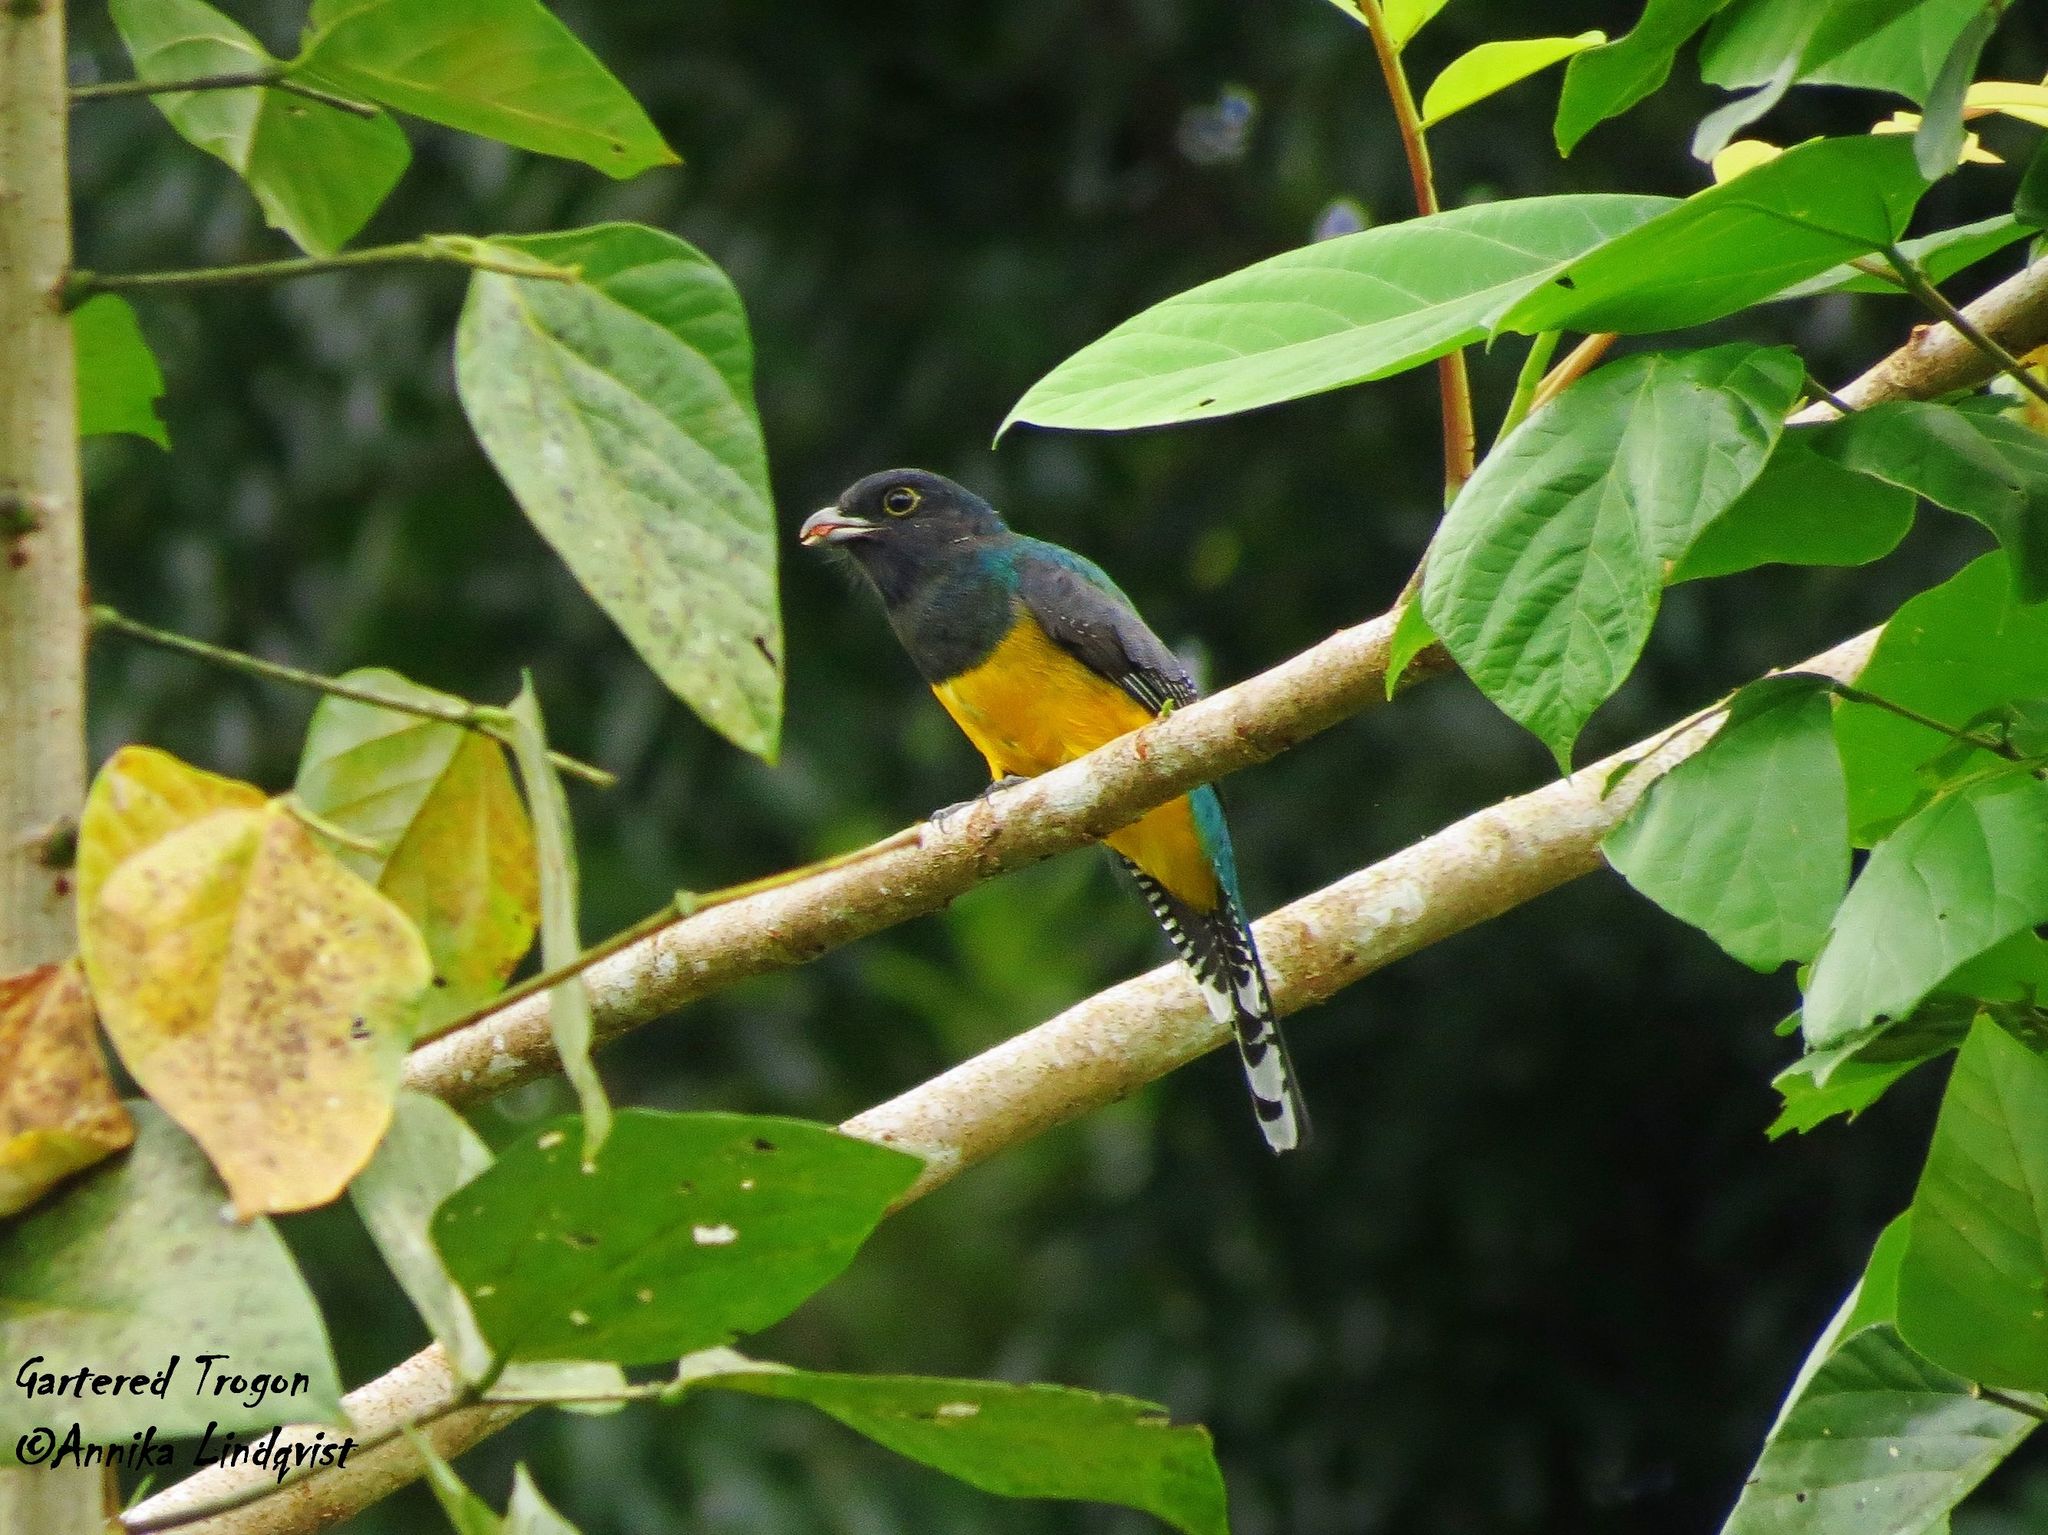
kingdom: Animalia
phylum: Chordata
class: Aves
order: Trogoniformes
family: Trogonidae
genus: Trogon
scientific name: Trogon caligatus
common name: Gartered trogon
